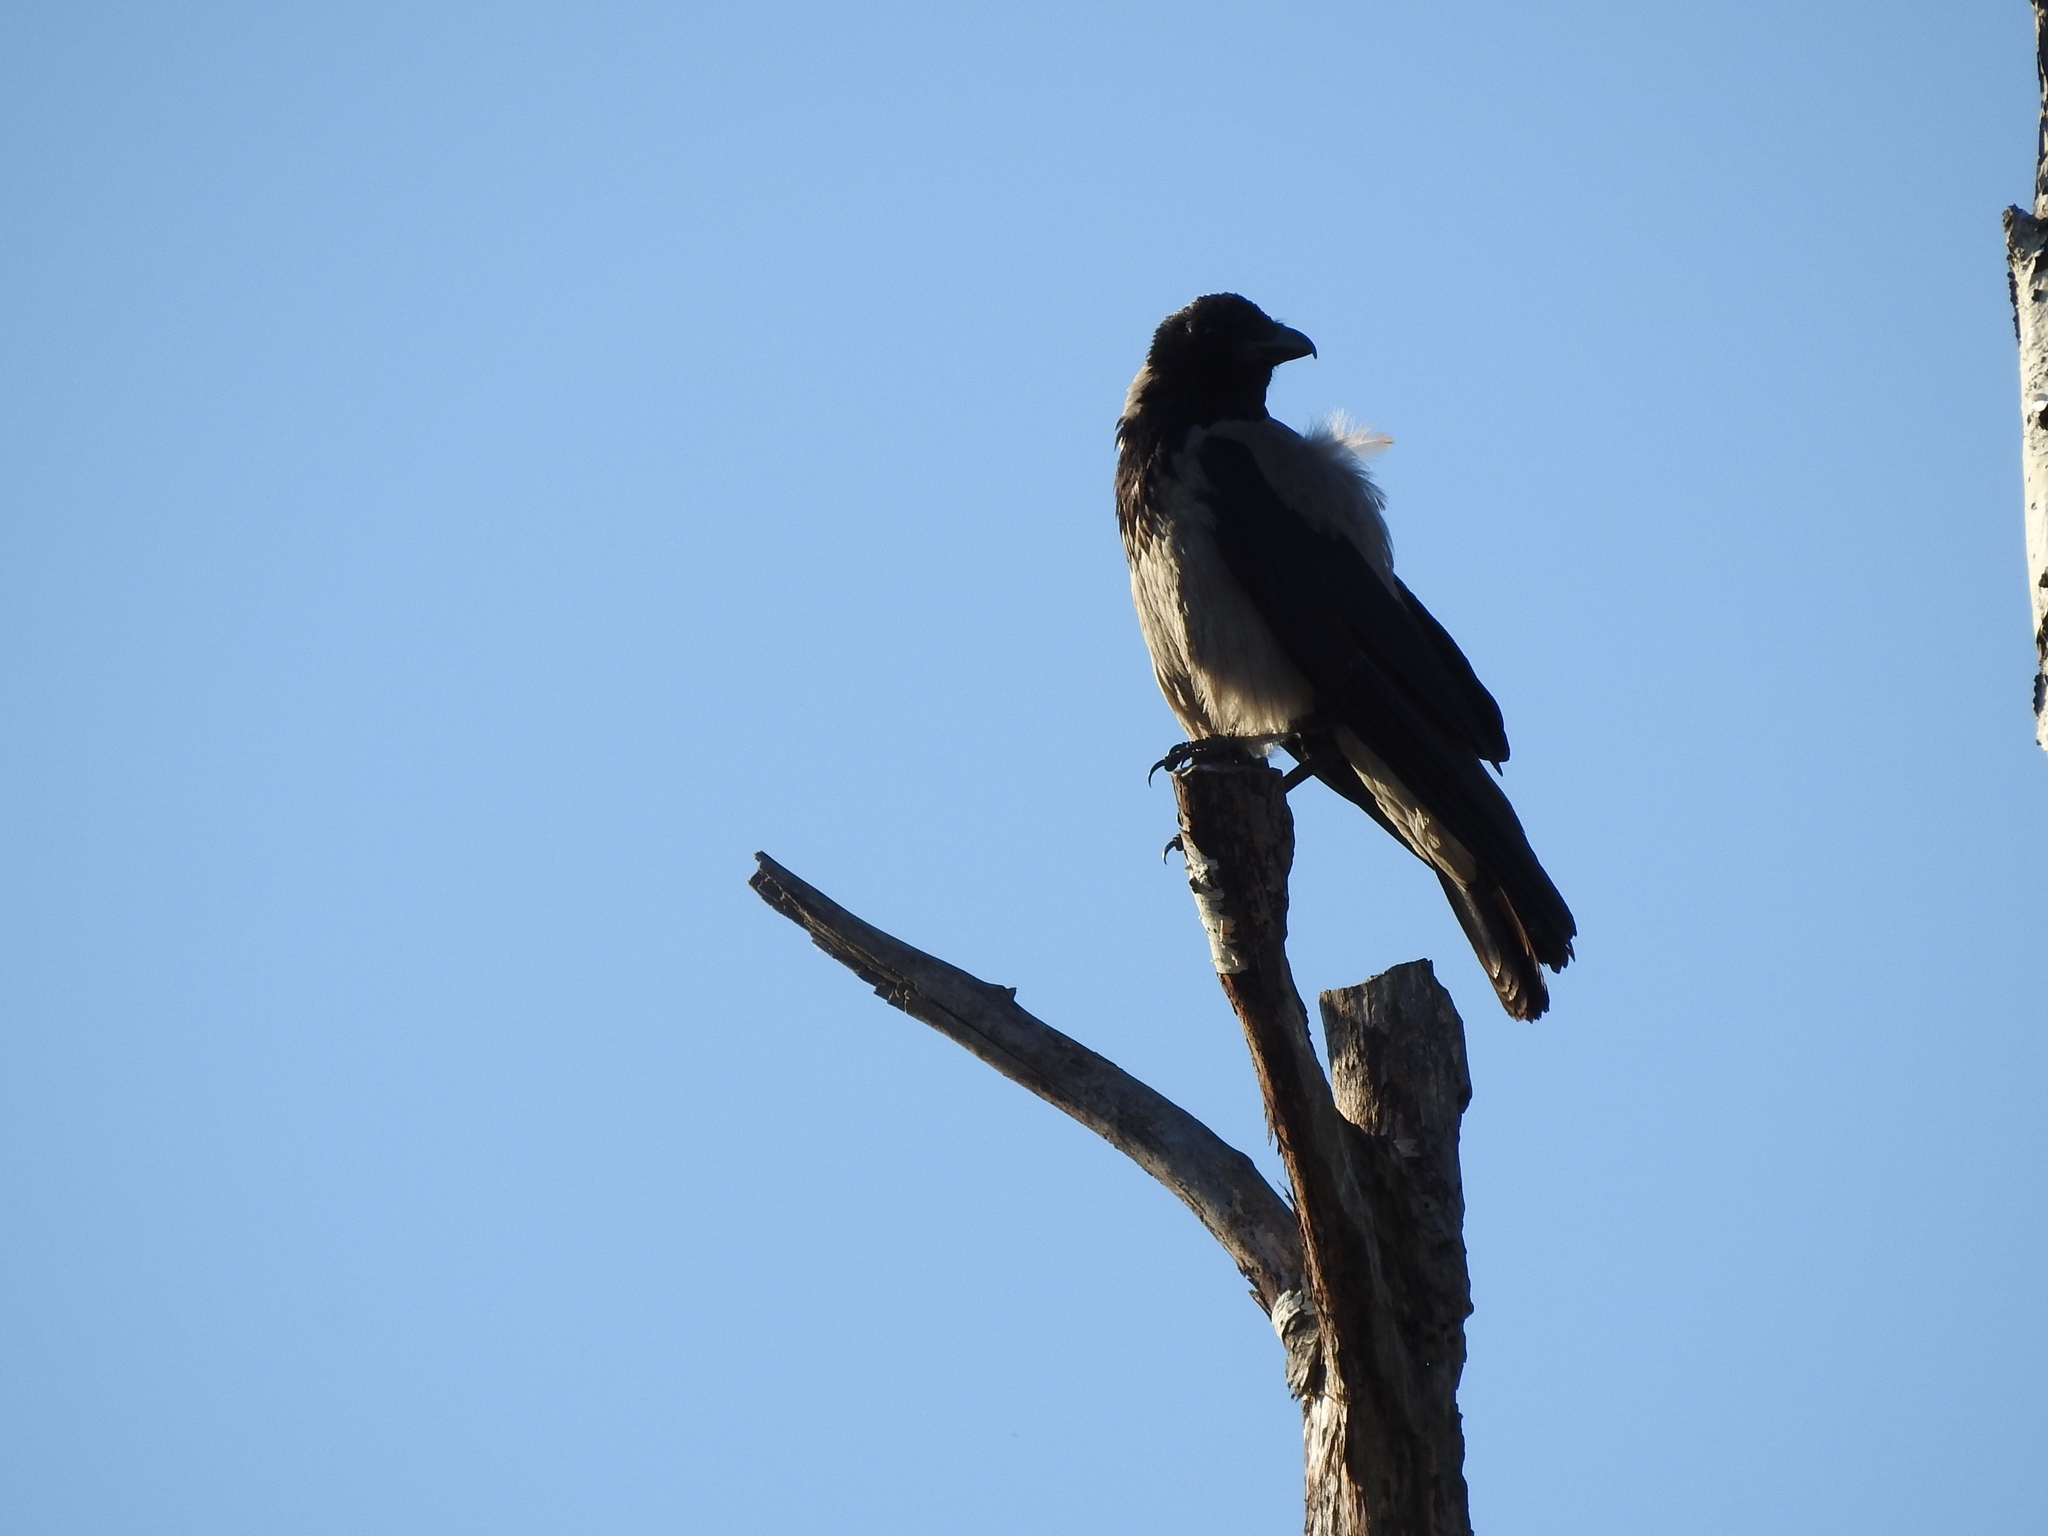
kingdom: Animalia
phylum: Chordata
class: Aves
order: Passeriformes
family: Corvidae
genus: Corvus
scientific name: Corvus cornix
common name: Hooded crow
